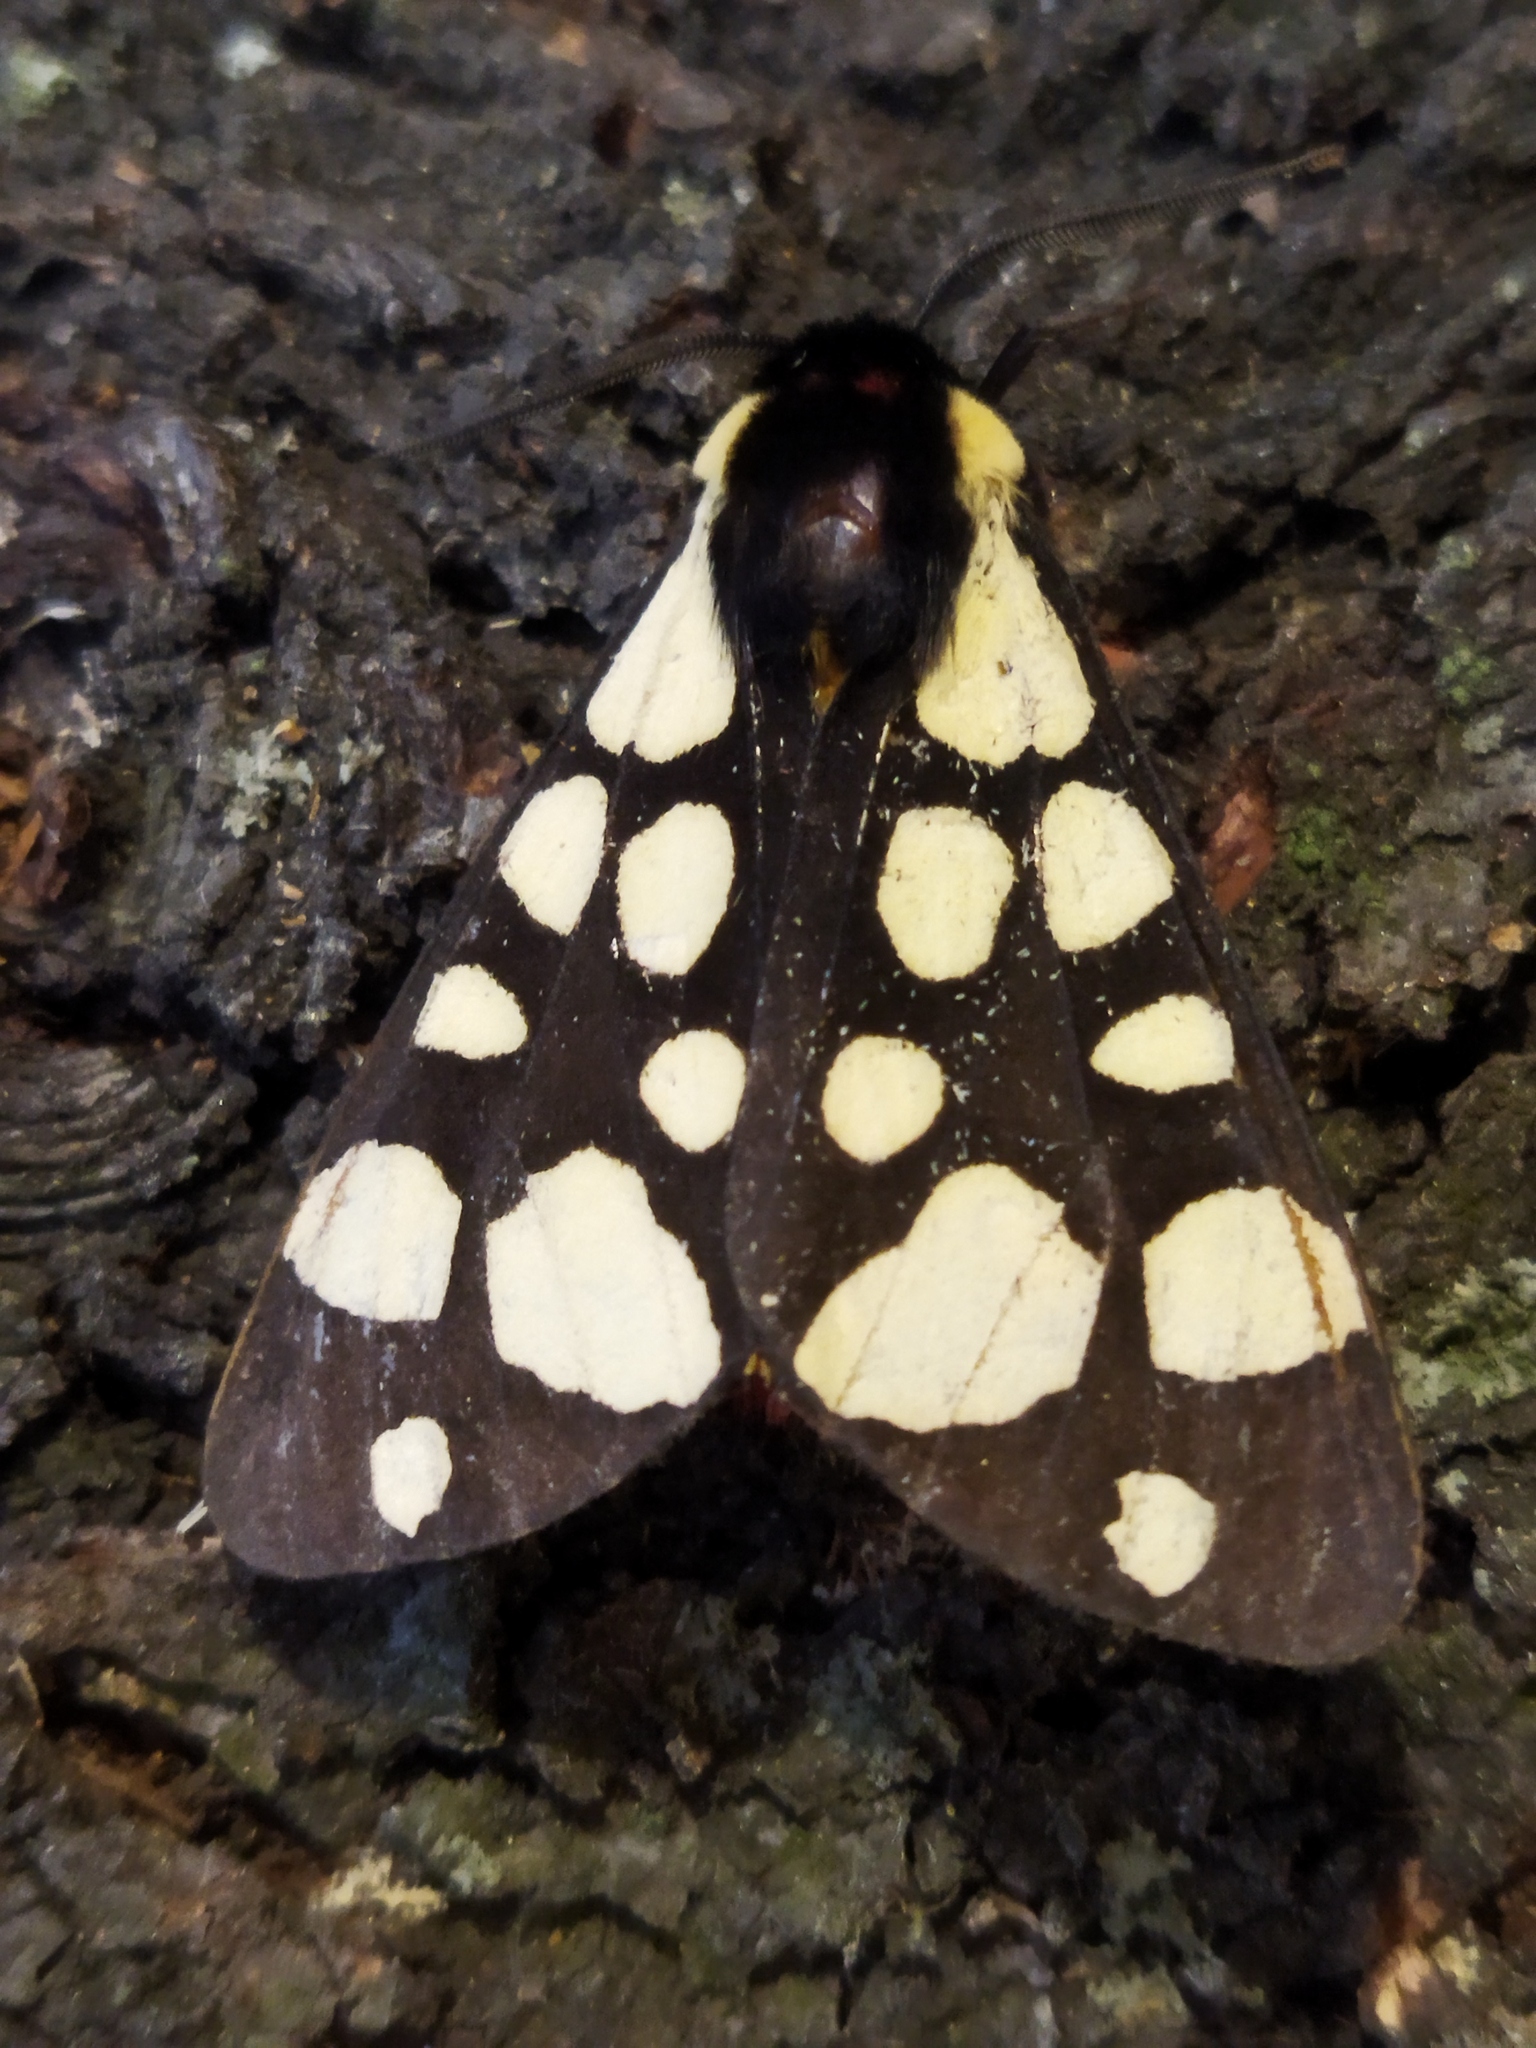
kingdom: Animalia
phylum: Arthropoda
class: Insecta
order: Lepidoptera
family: Erebidae
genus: Epicallia
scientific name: Epicallia villica
